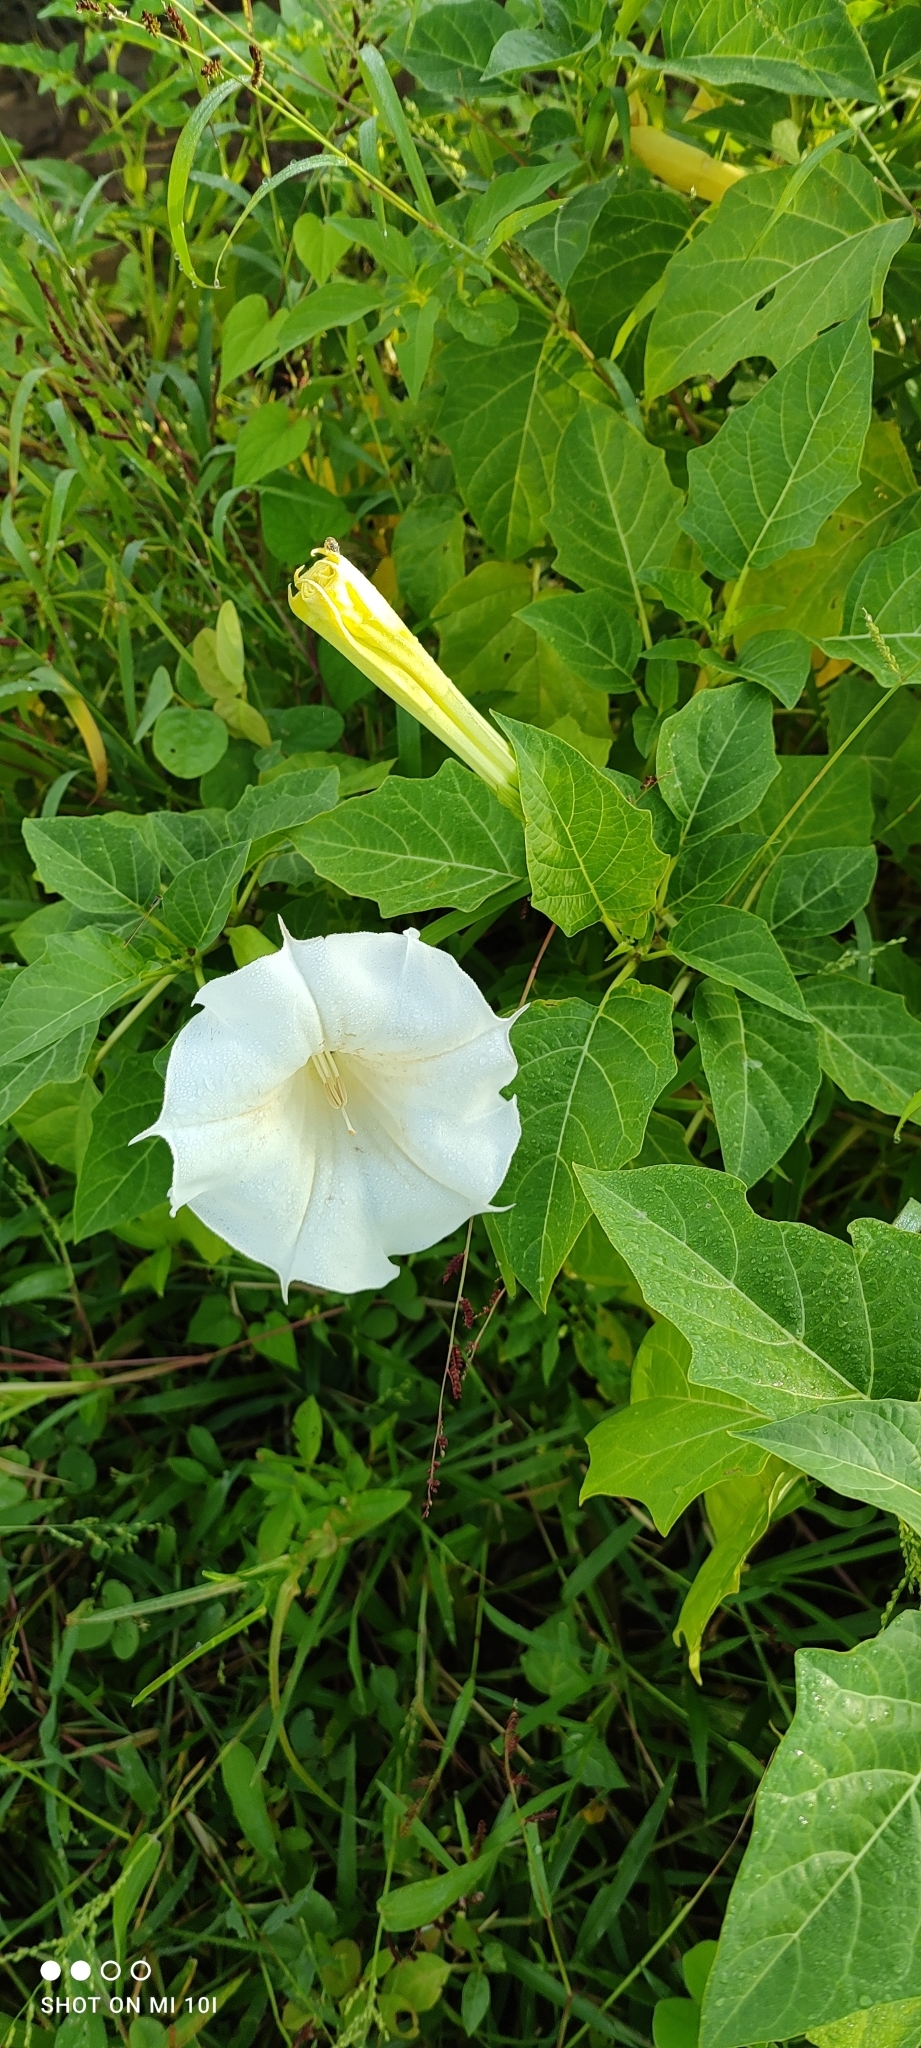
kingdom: Plantae
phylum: Tracheophyta
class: Magnoliopsida
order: Solanales
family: Solanaceae
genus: Brugmansia
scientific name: Brugmansia suaveolens
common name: Angel's tears
